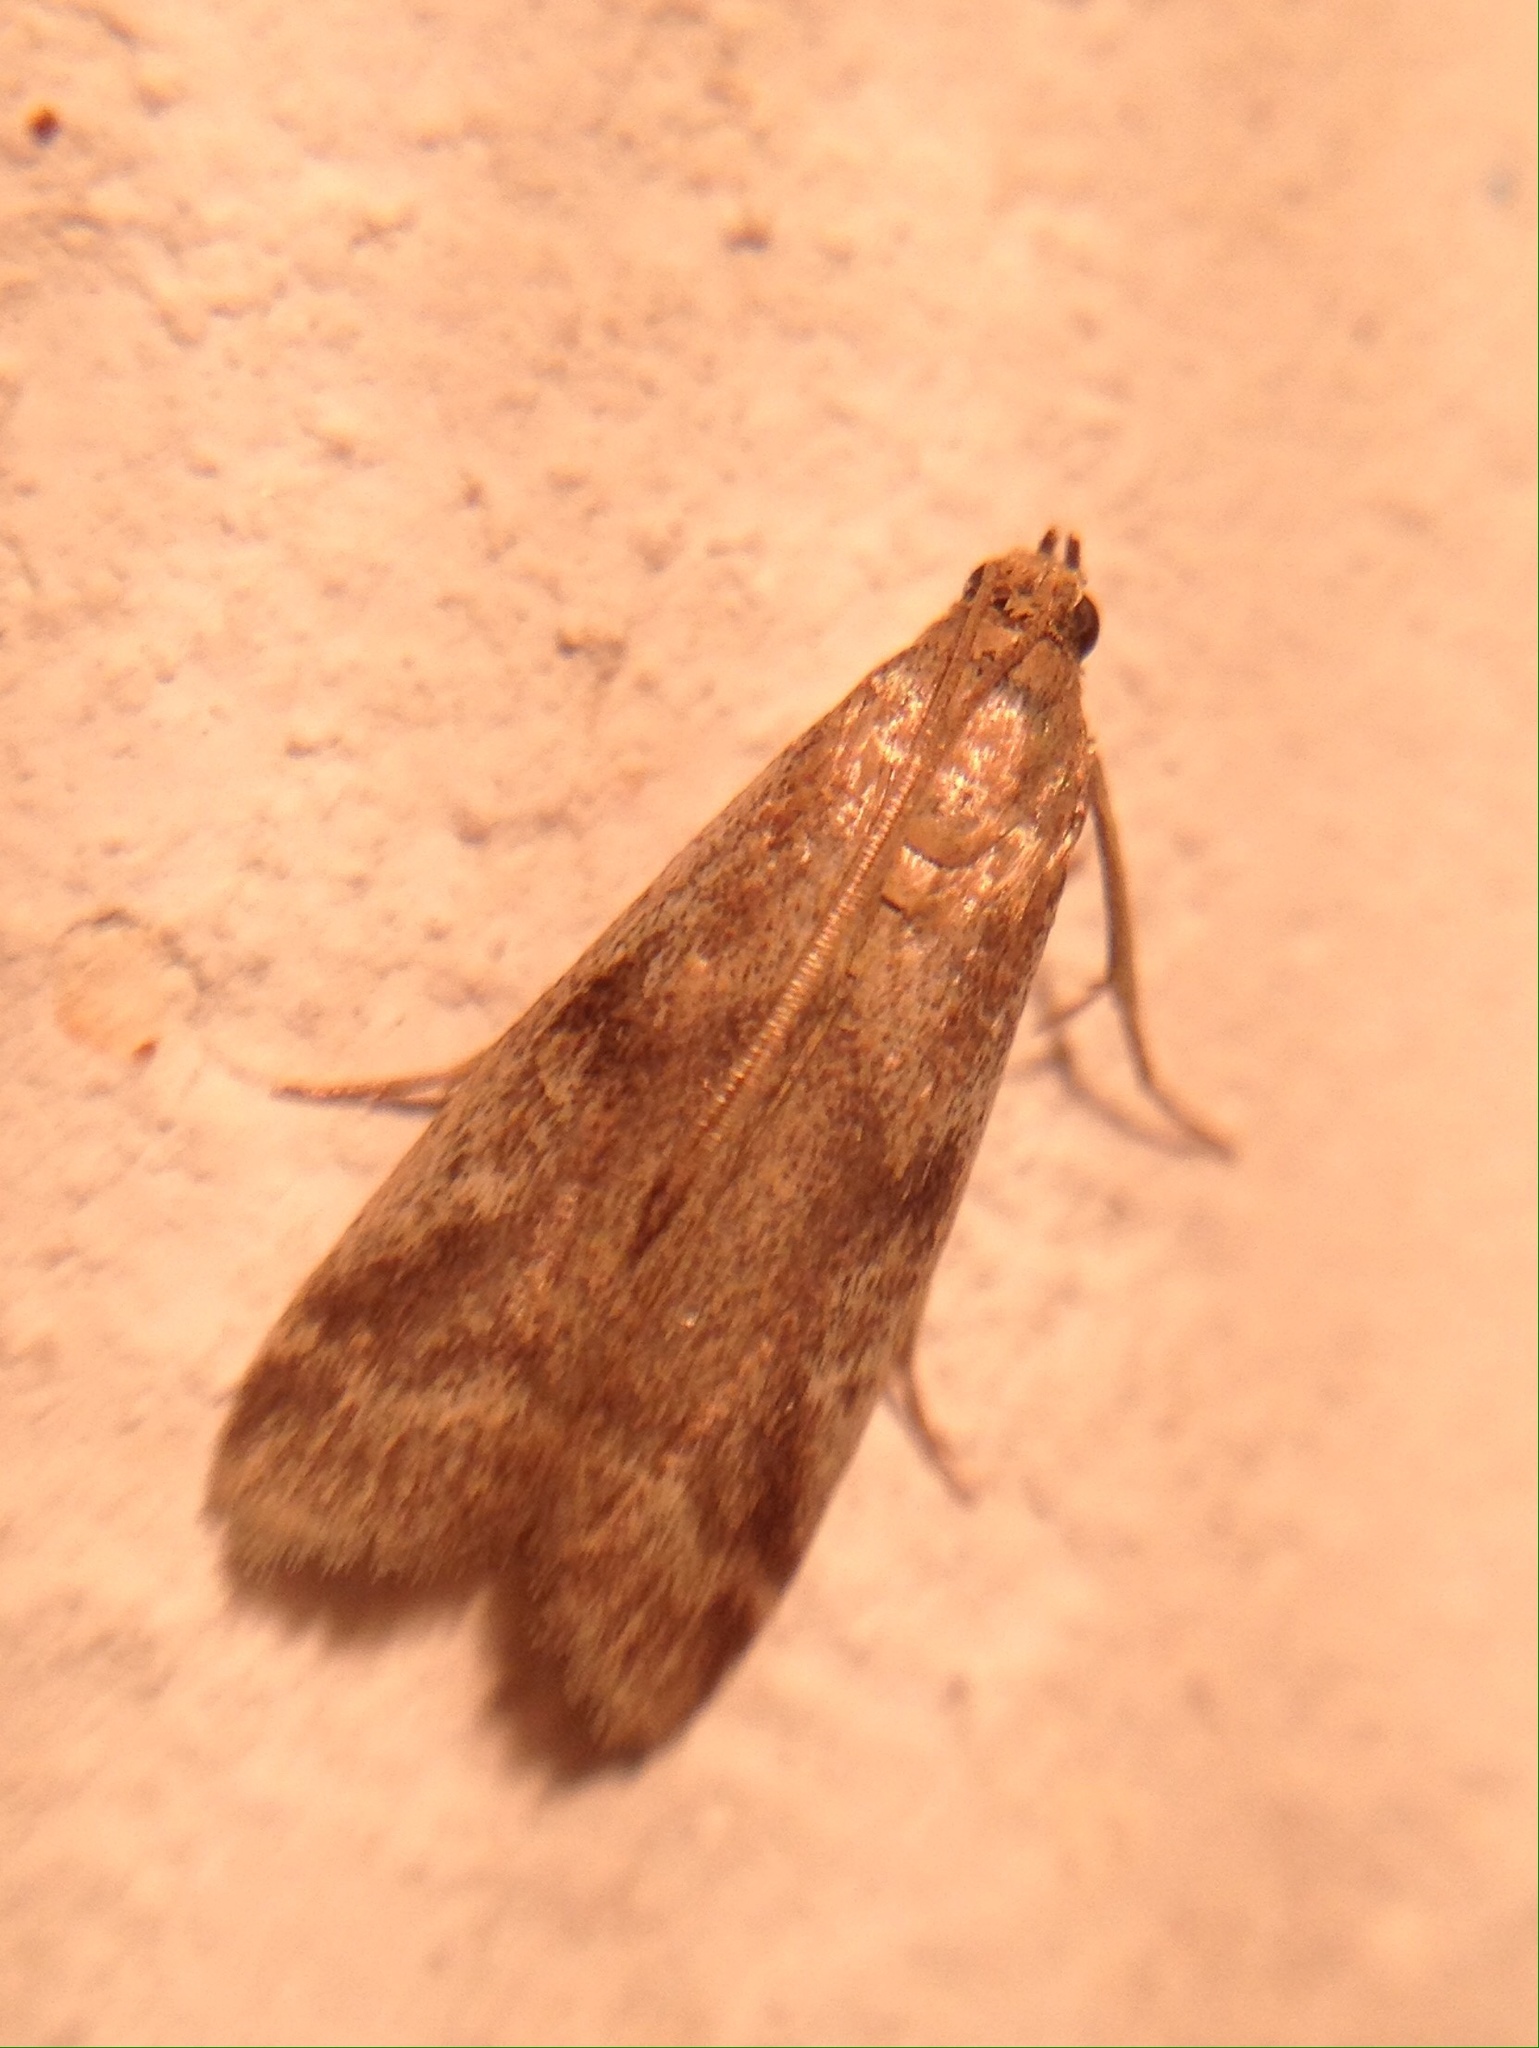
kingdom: Animalia
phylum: Arthropoda
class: Insecta
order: Lepidoptera
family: Pyralidae
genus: Euzophera
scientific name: Euzophera cinerosella
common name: Wormwood knot-horn
